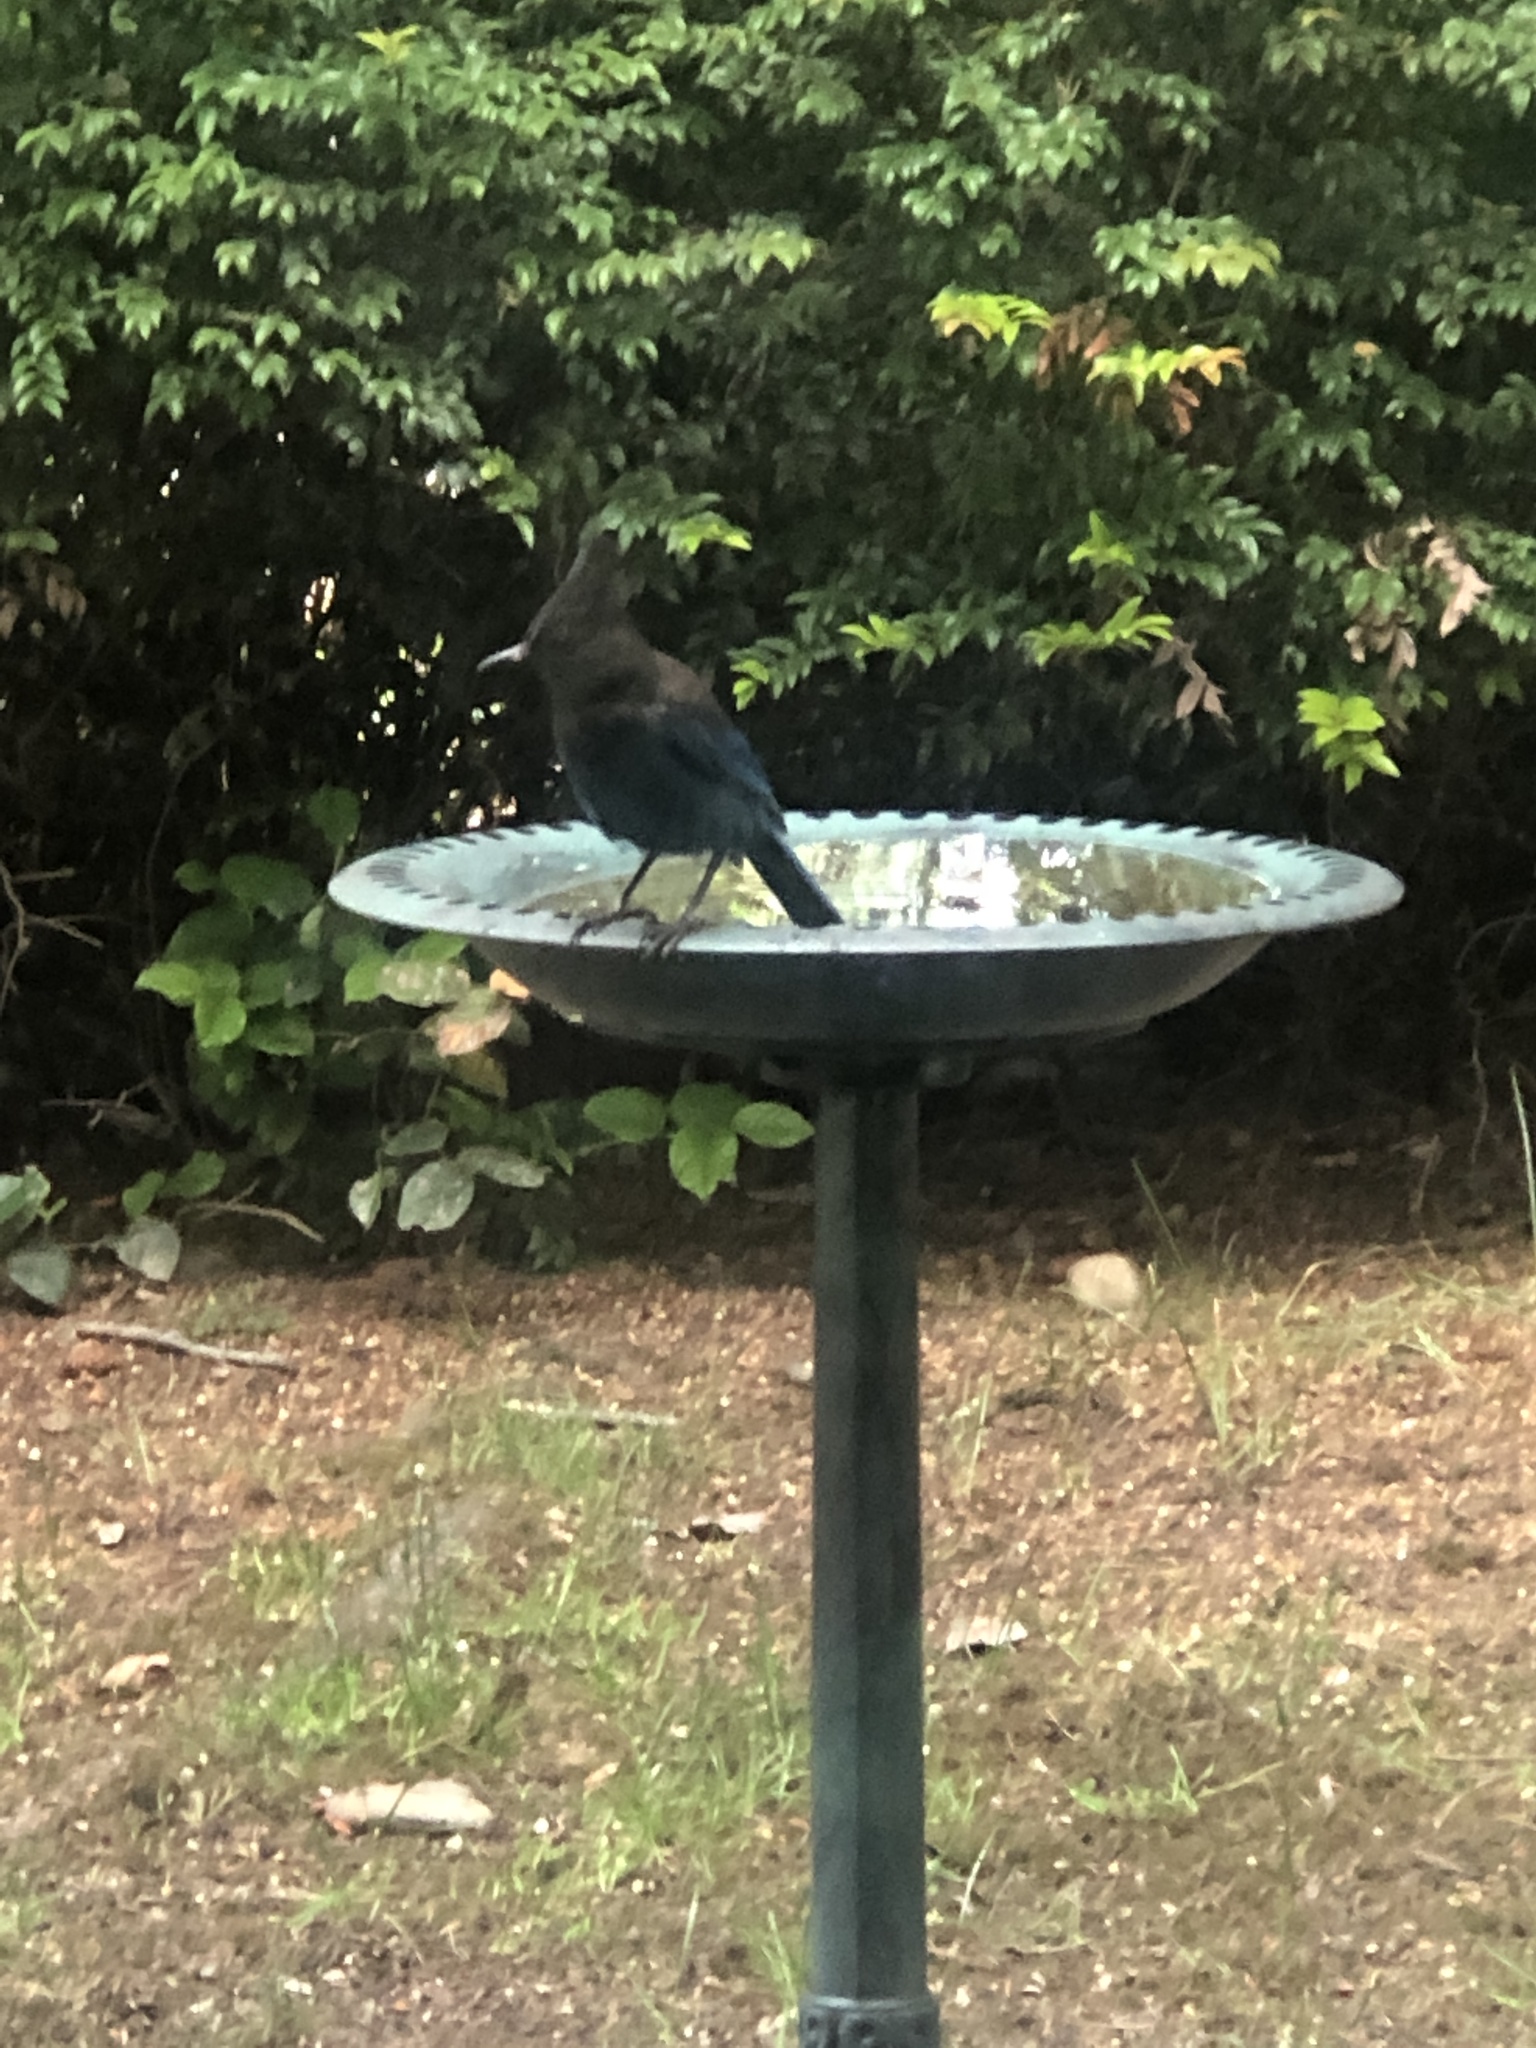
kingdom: Animalia
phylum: Chordata
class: Aves
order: Passeriformes
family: Corvidae
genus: Cyanocitta
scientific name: Cyanocitta stelleri
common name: Steller's jay
